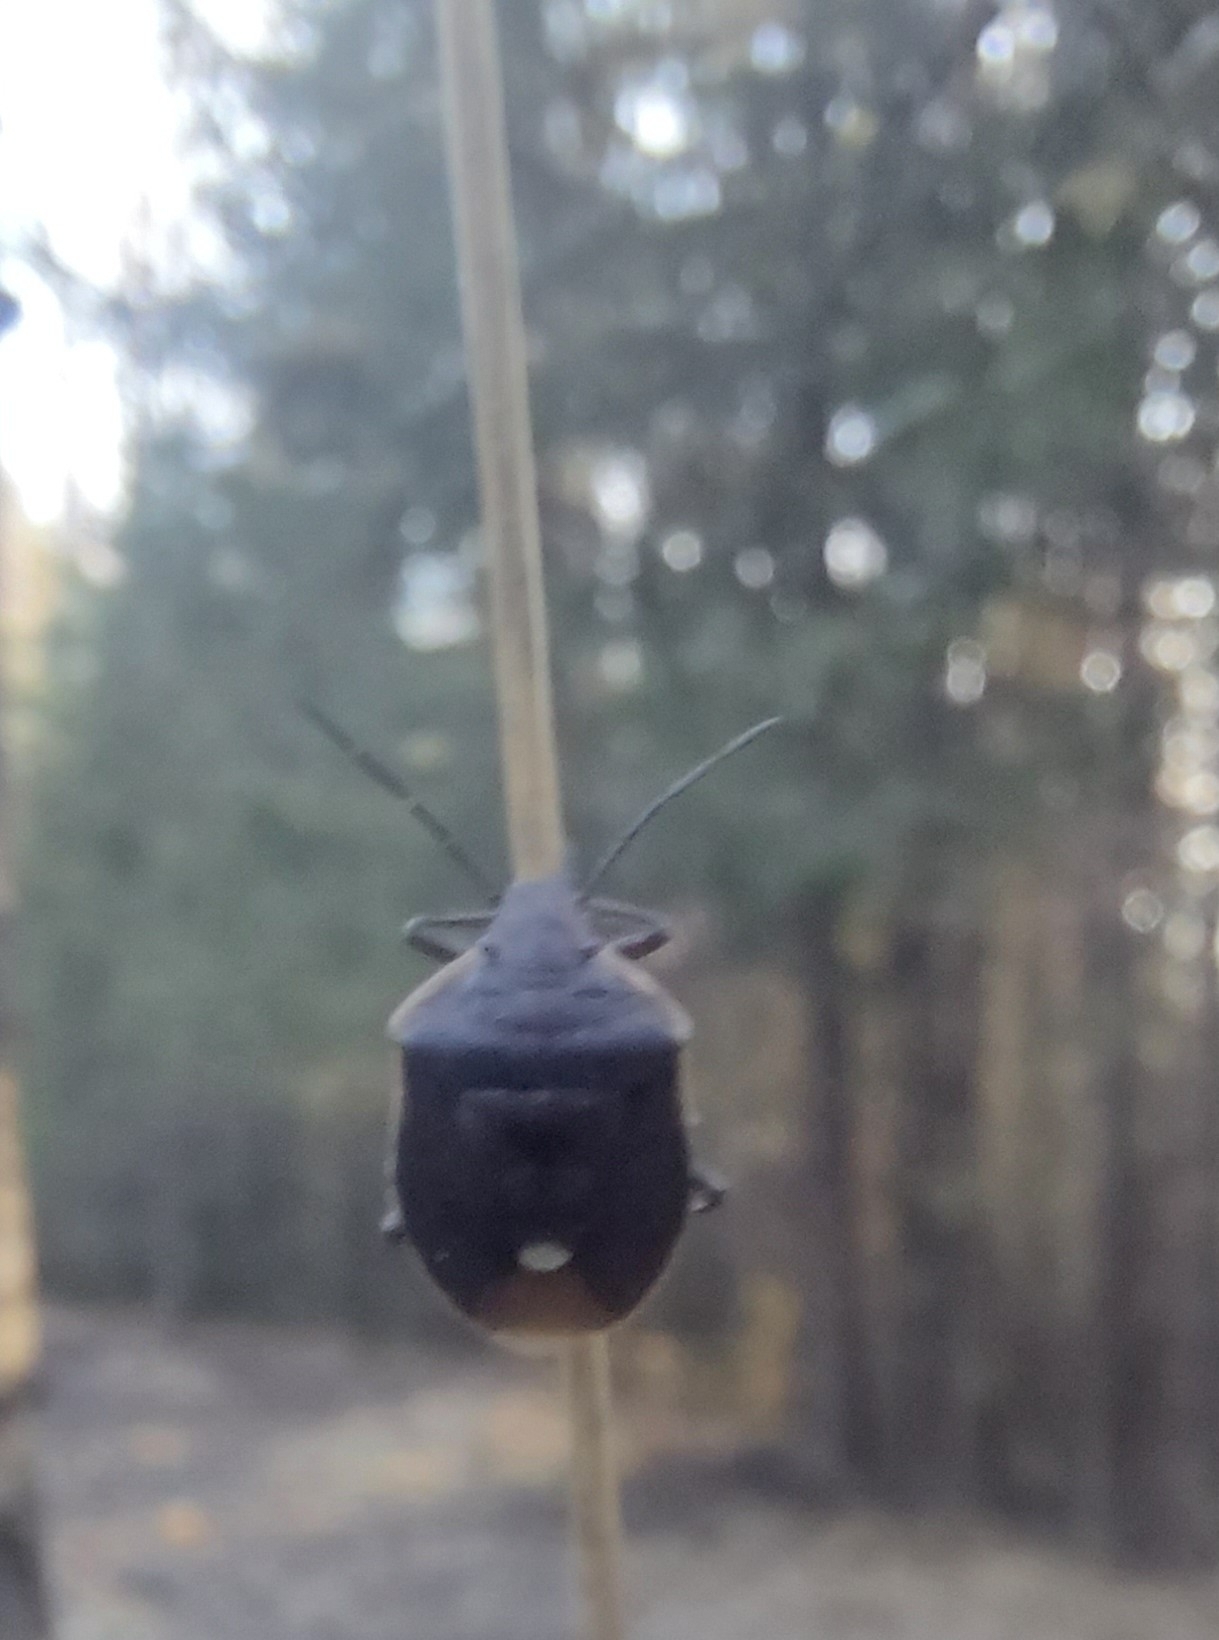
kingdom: Animalia
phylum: Arthropoda
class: Insecta
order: Hemiptera
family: Pentatomidae
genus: Chlorochroa
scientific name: Chlorochroa pinicola
